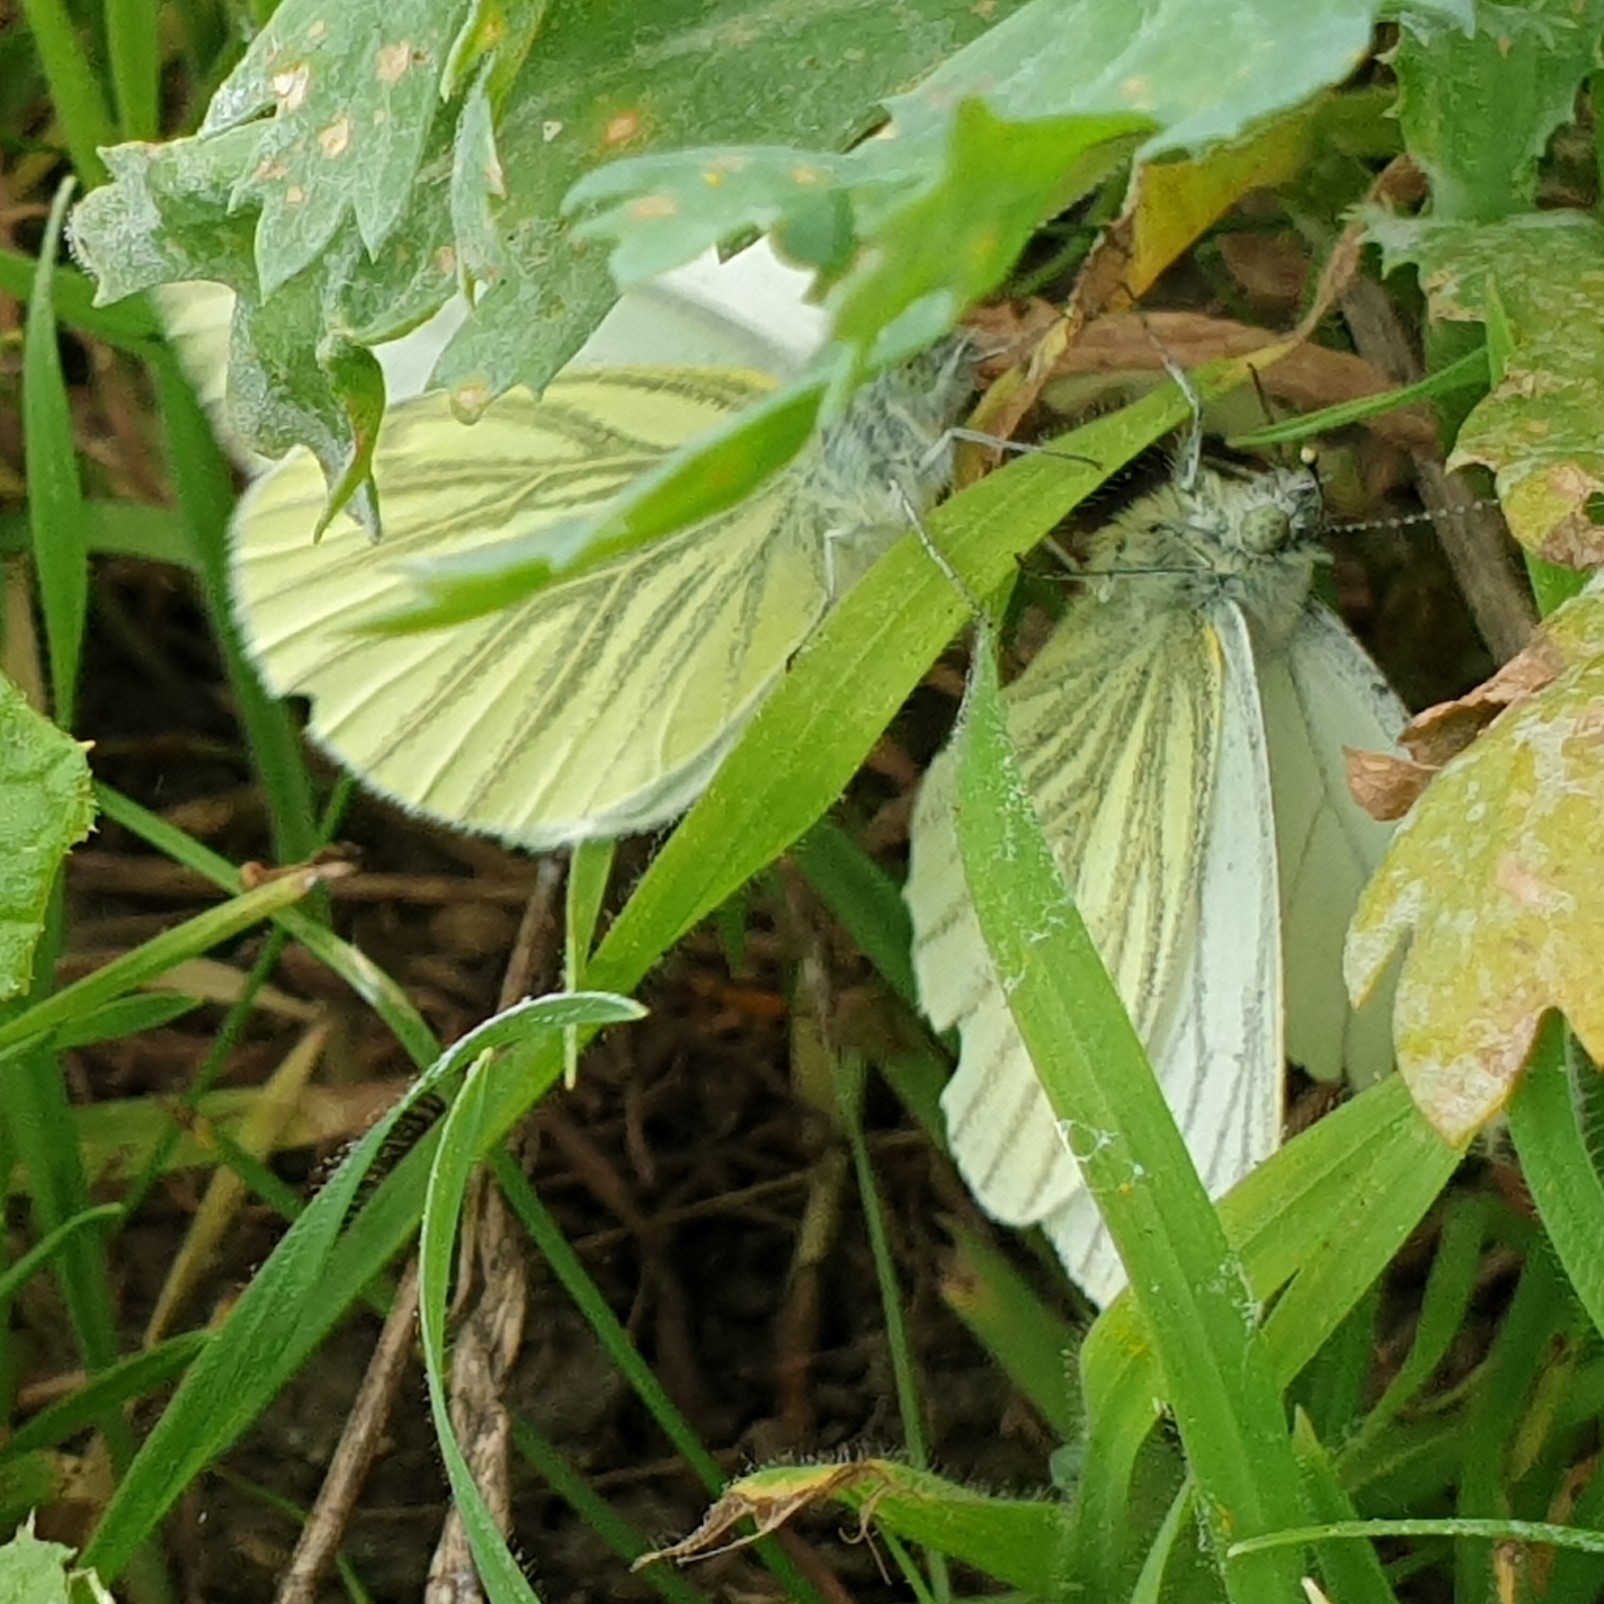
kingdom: Animalia
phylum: Arthropoda
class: Insecta
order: Lepidoptera
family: Pieridae
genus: Pieris
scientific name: Pieris napi
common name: Green-veined white
